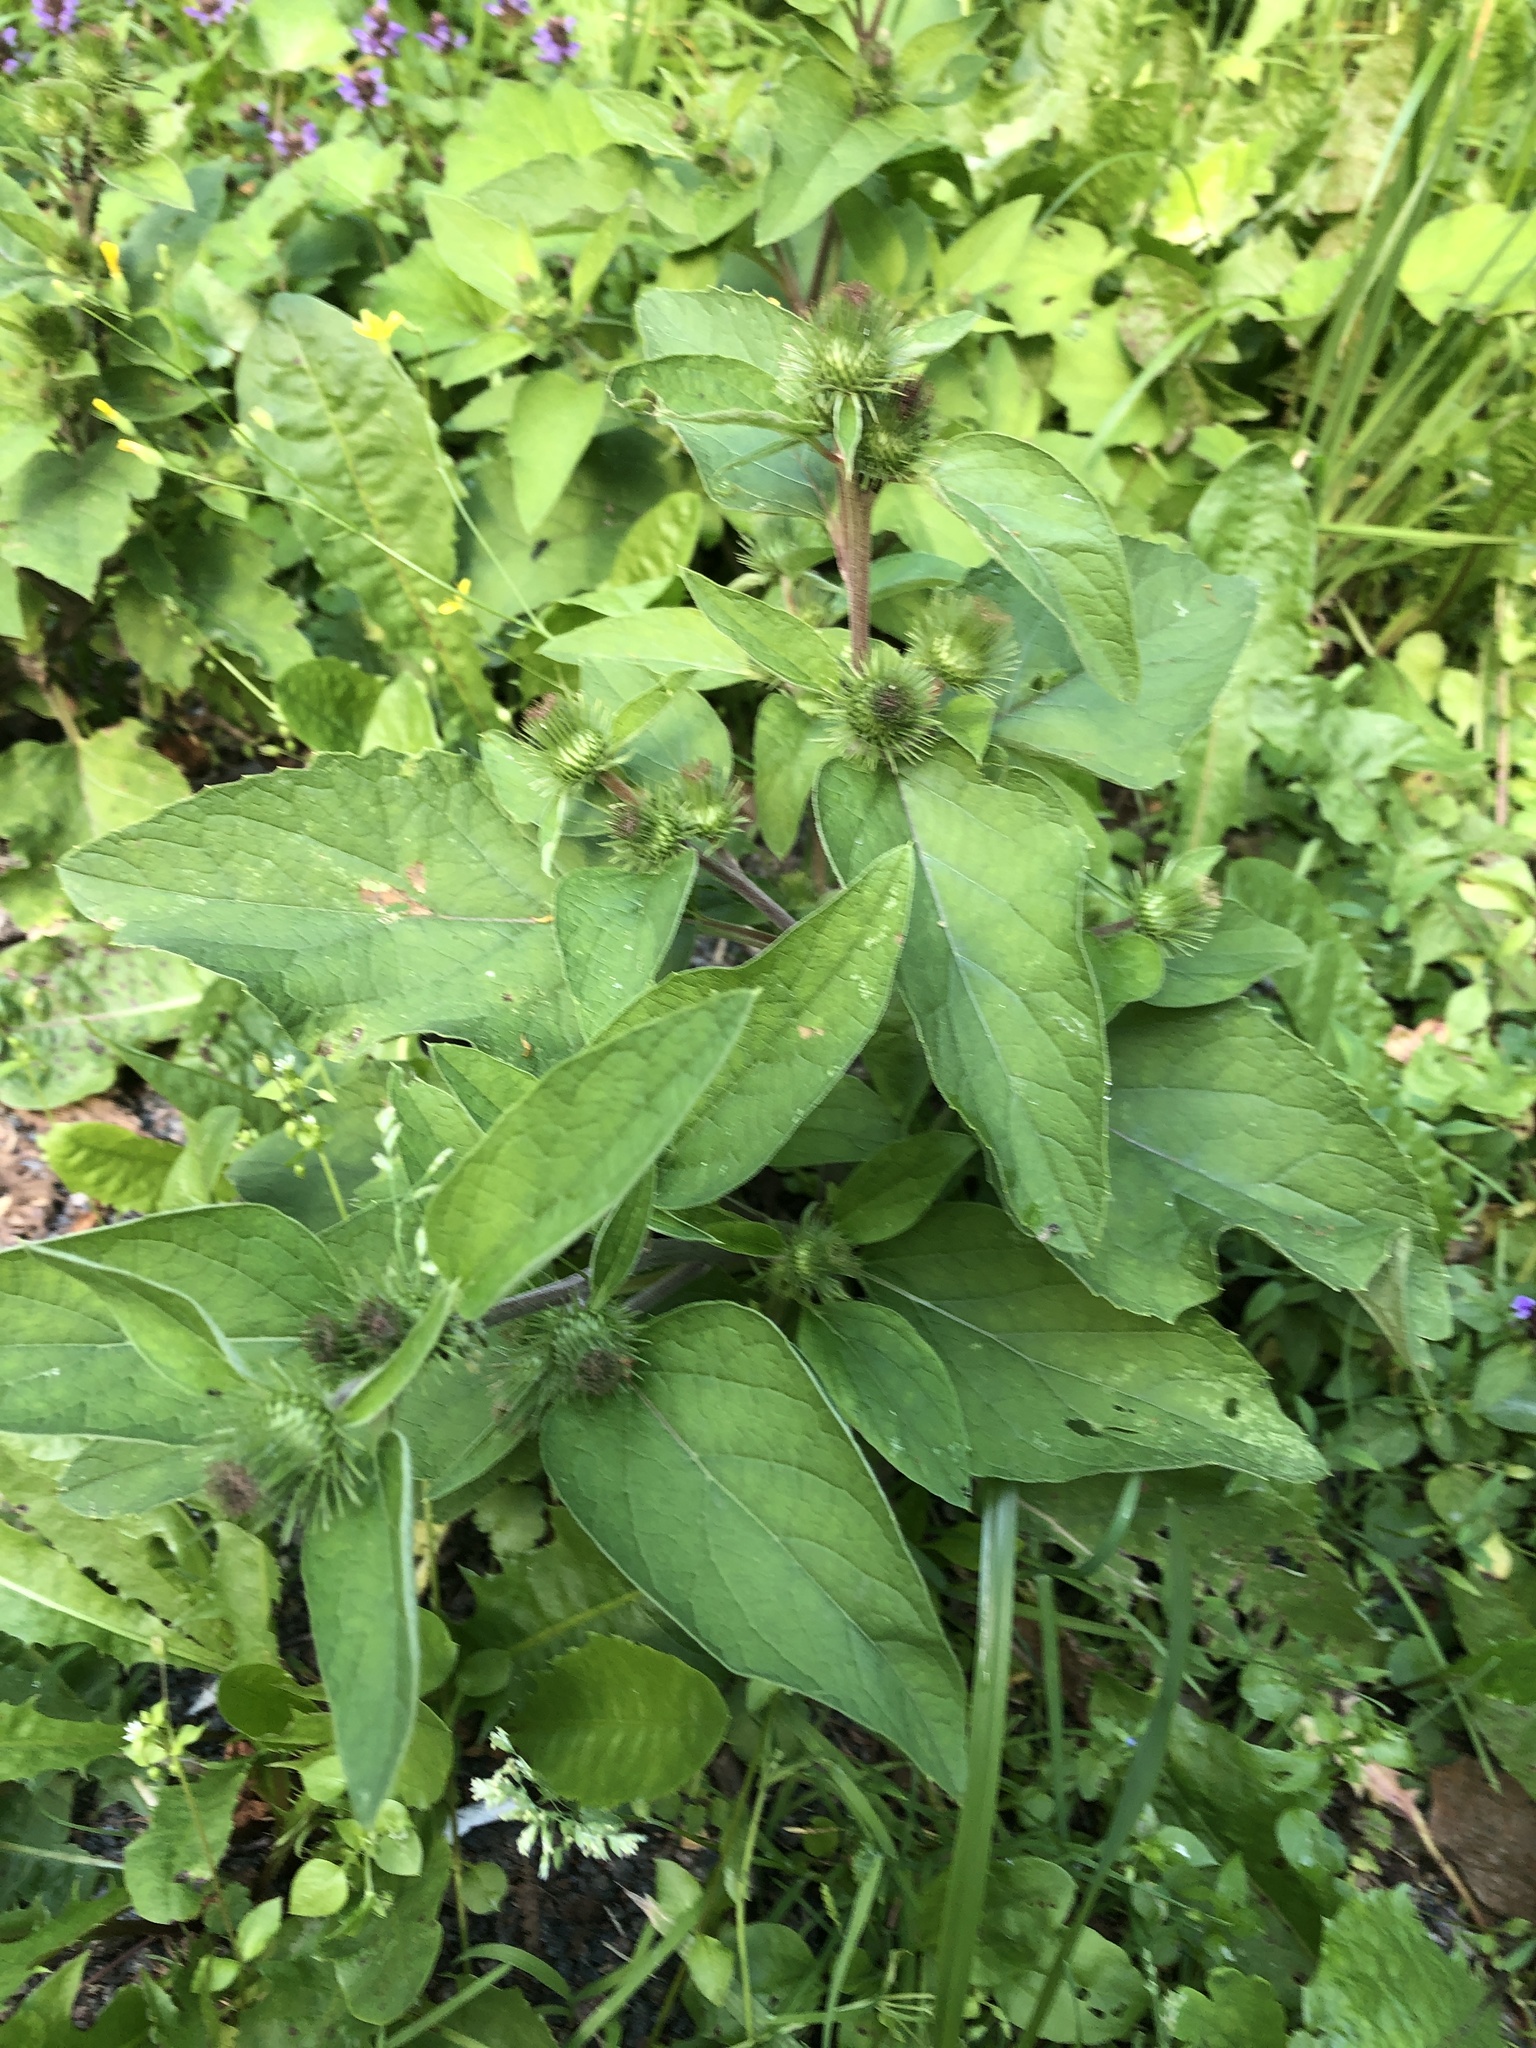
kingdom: Plantae
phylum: Tracheophyta
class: Magnoliopsida
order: Asterales
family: Asteraceae
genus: Arctium
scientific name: Arctium minus
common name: Lesser burdock
